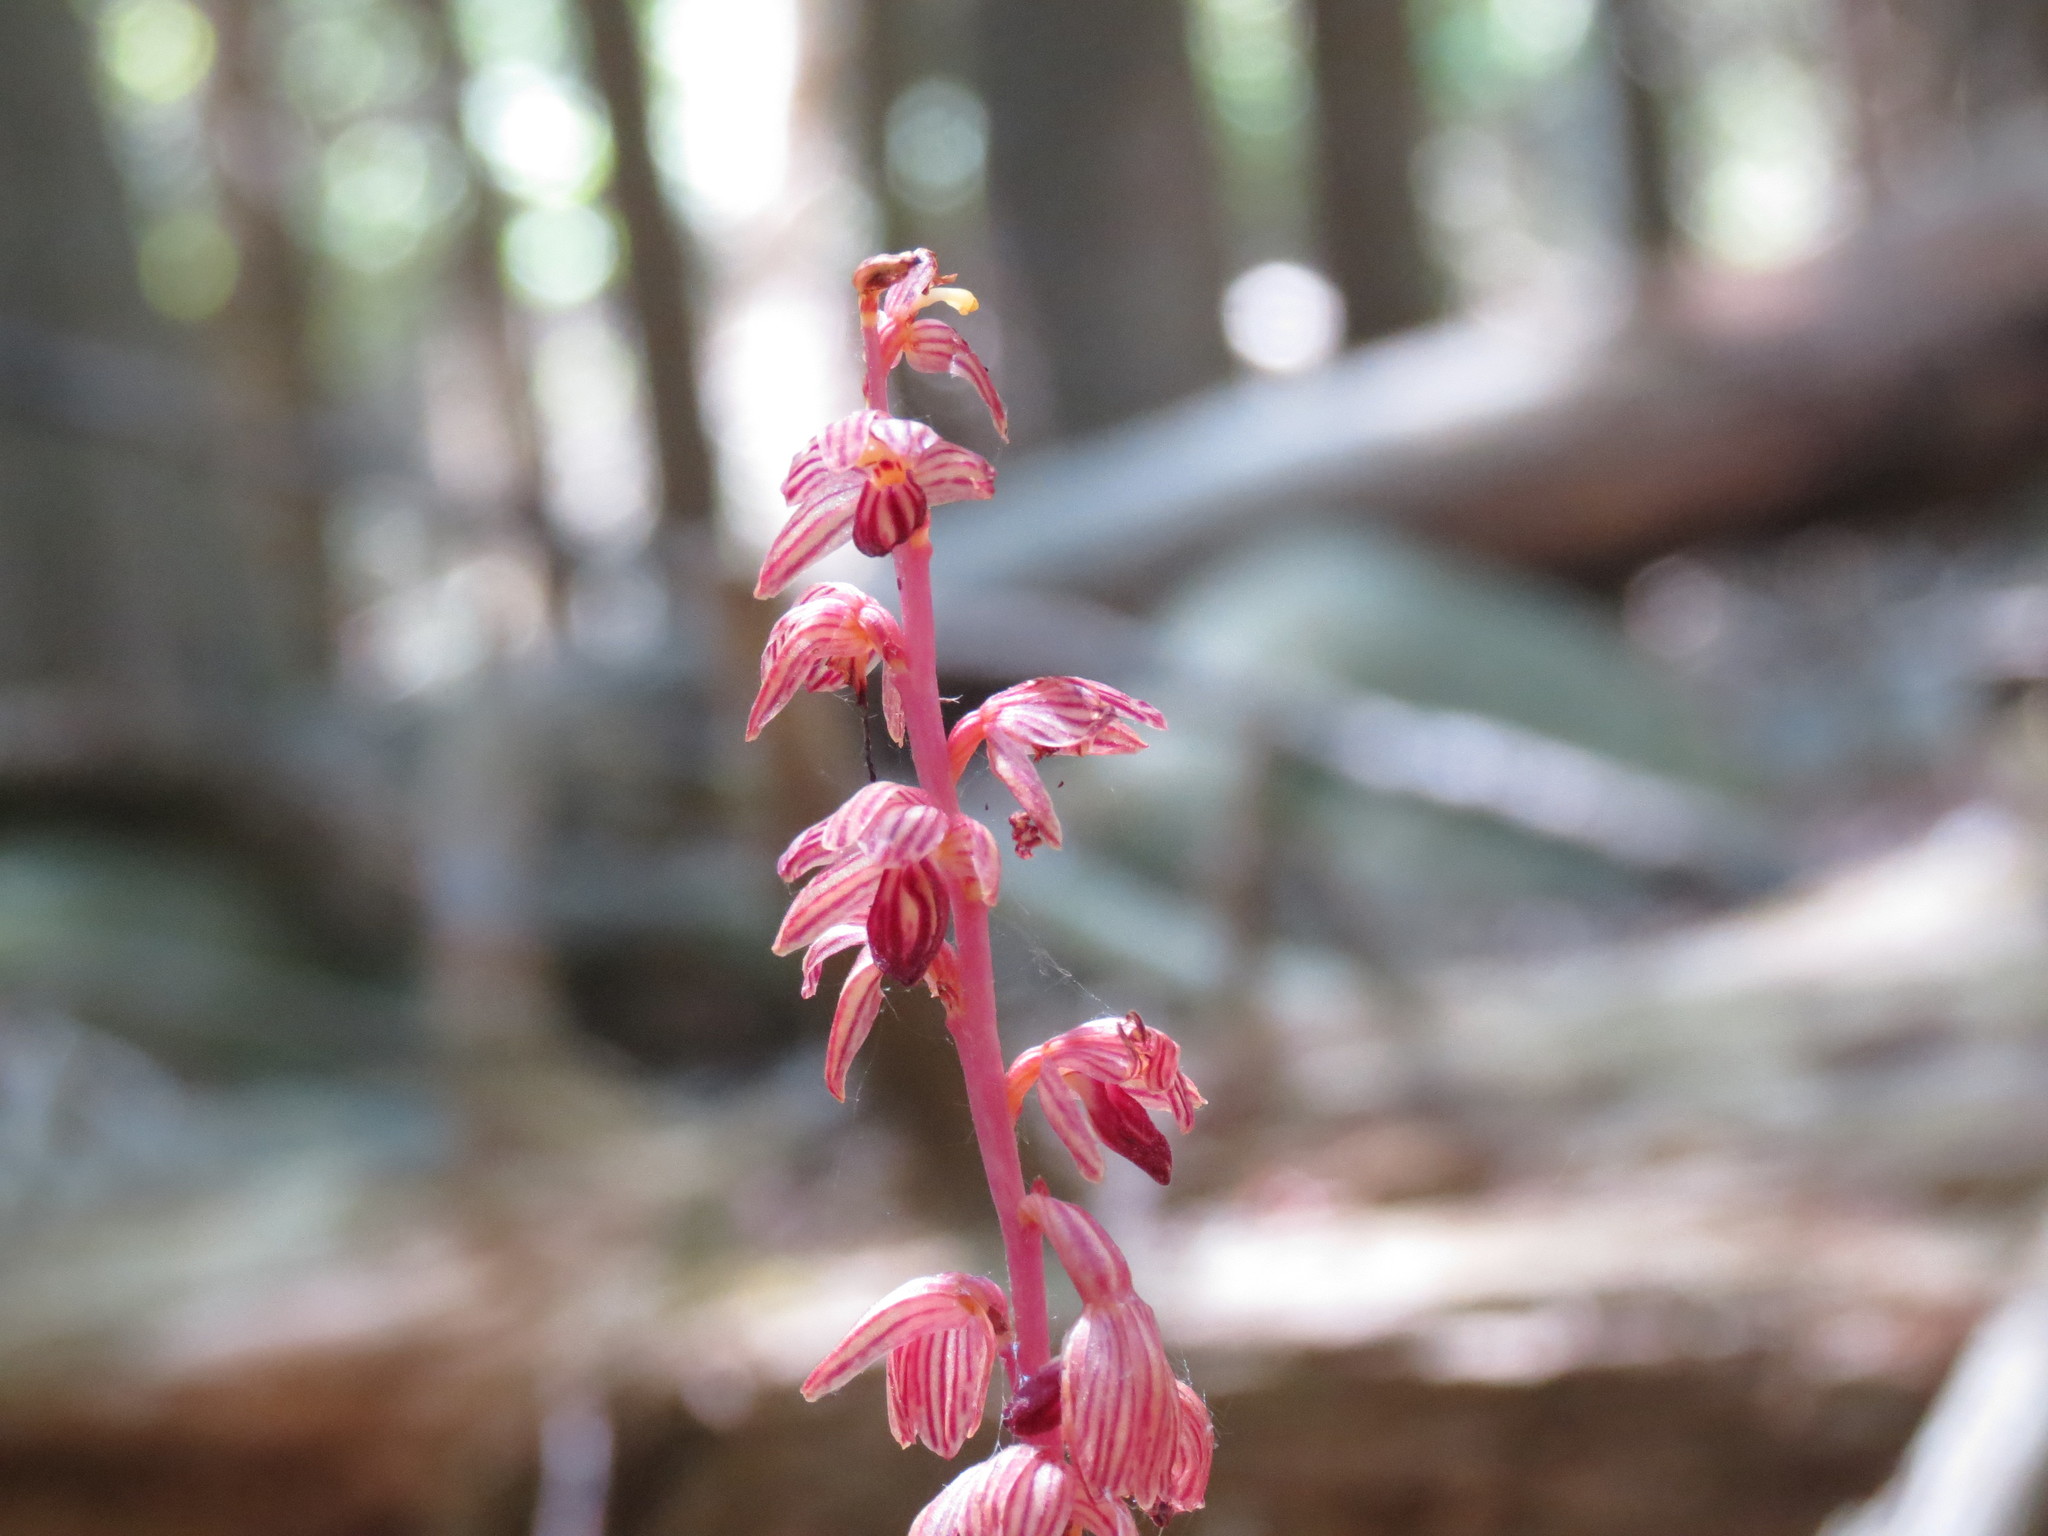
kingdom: Plantae
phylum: Tracheophyta
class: Liliopsida
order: Asparagales
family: Orchidaceae
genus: Corallorhiza
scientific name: Corallorhiza striata
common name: Hooded coralroot
